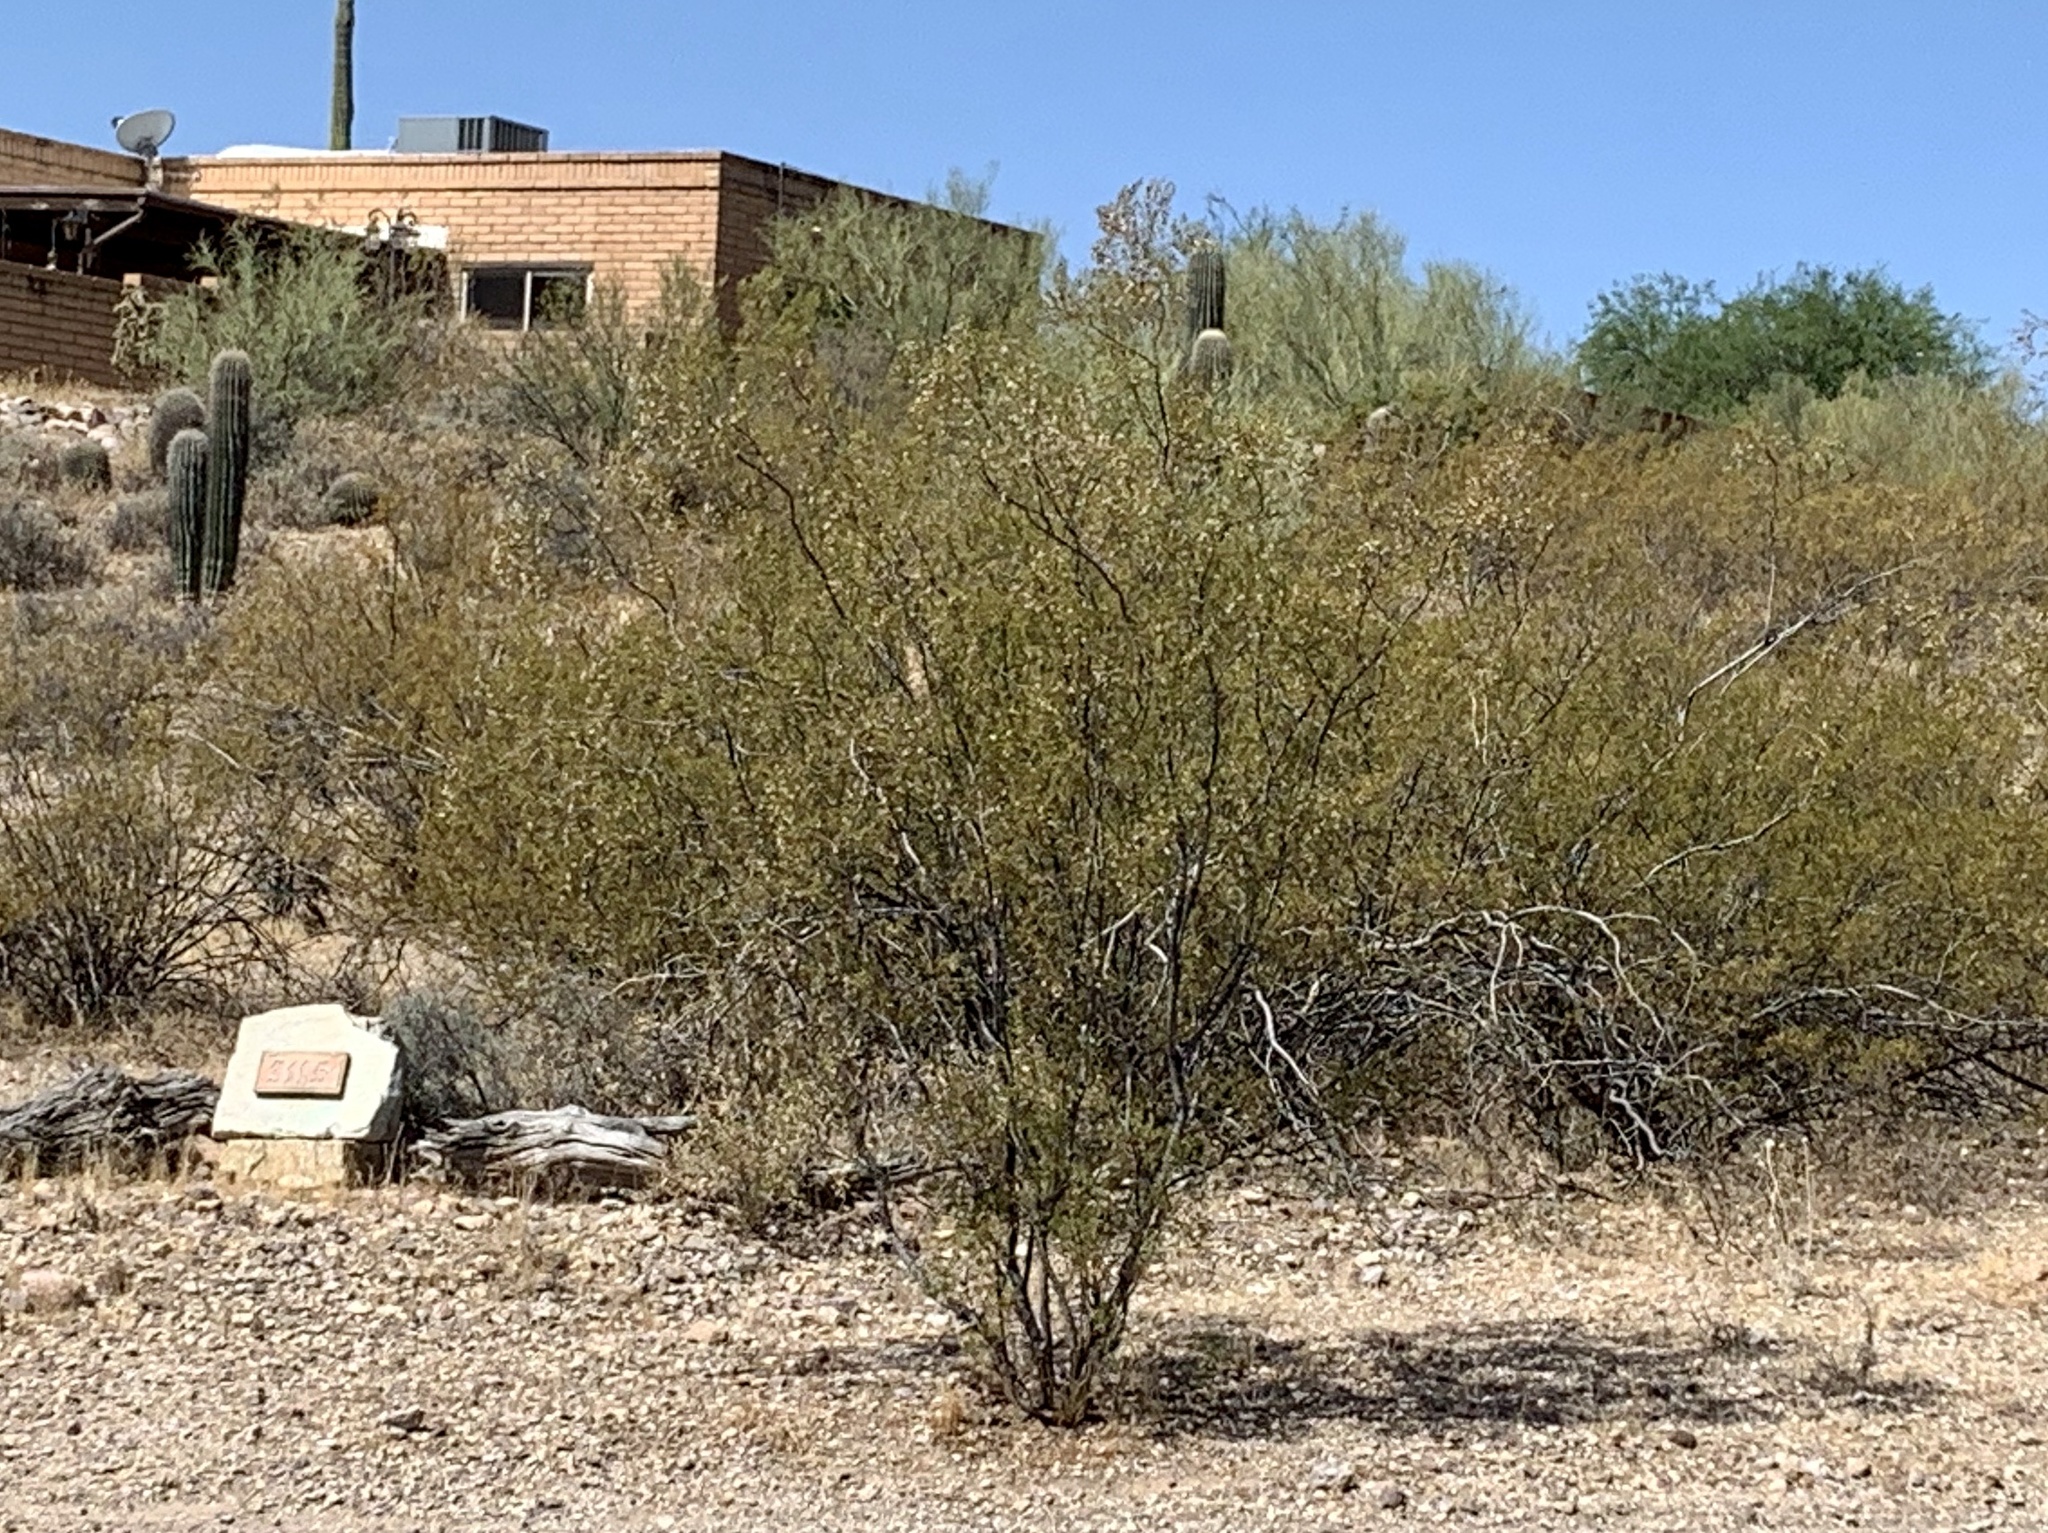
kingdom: Plantae
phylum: Tracheophyta
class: Magnoliopsida
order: Zygophyllales
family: Zygophyllaceae
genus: Larrea
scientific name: Larrea tridentata
